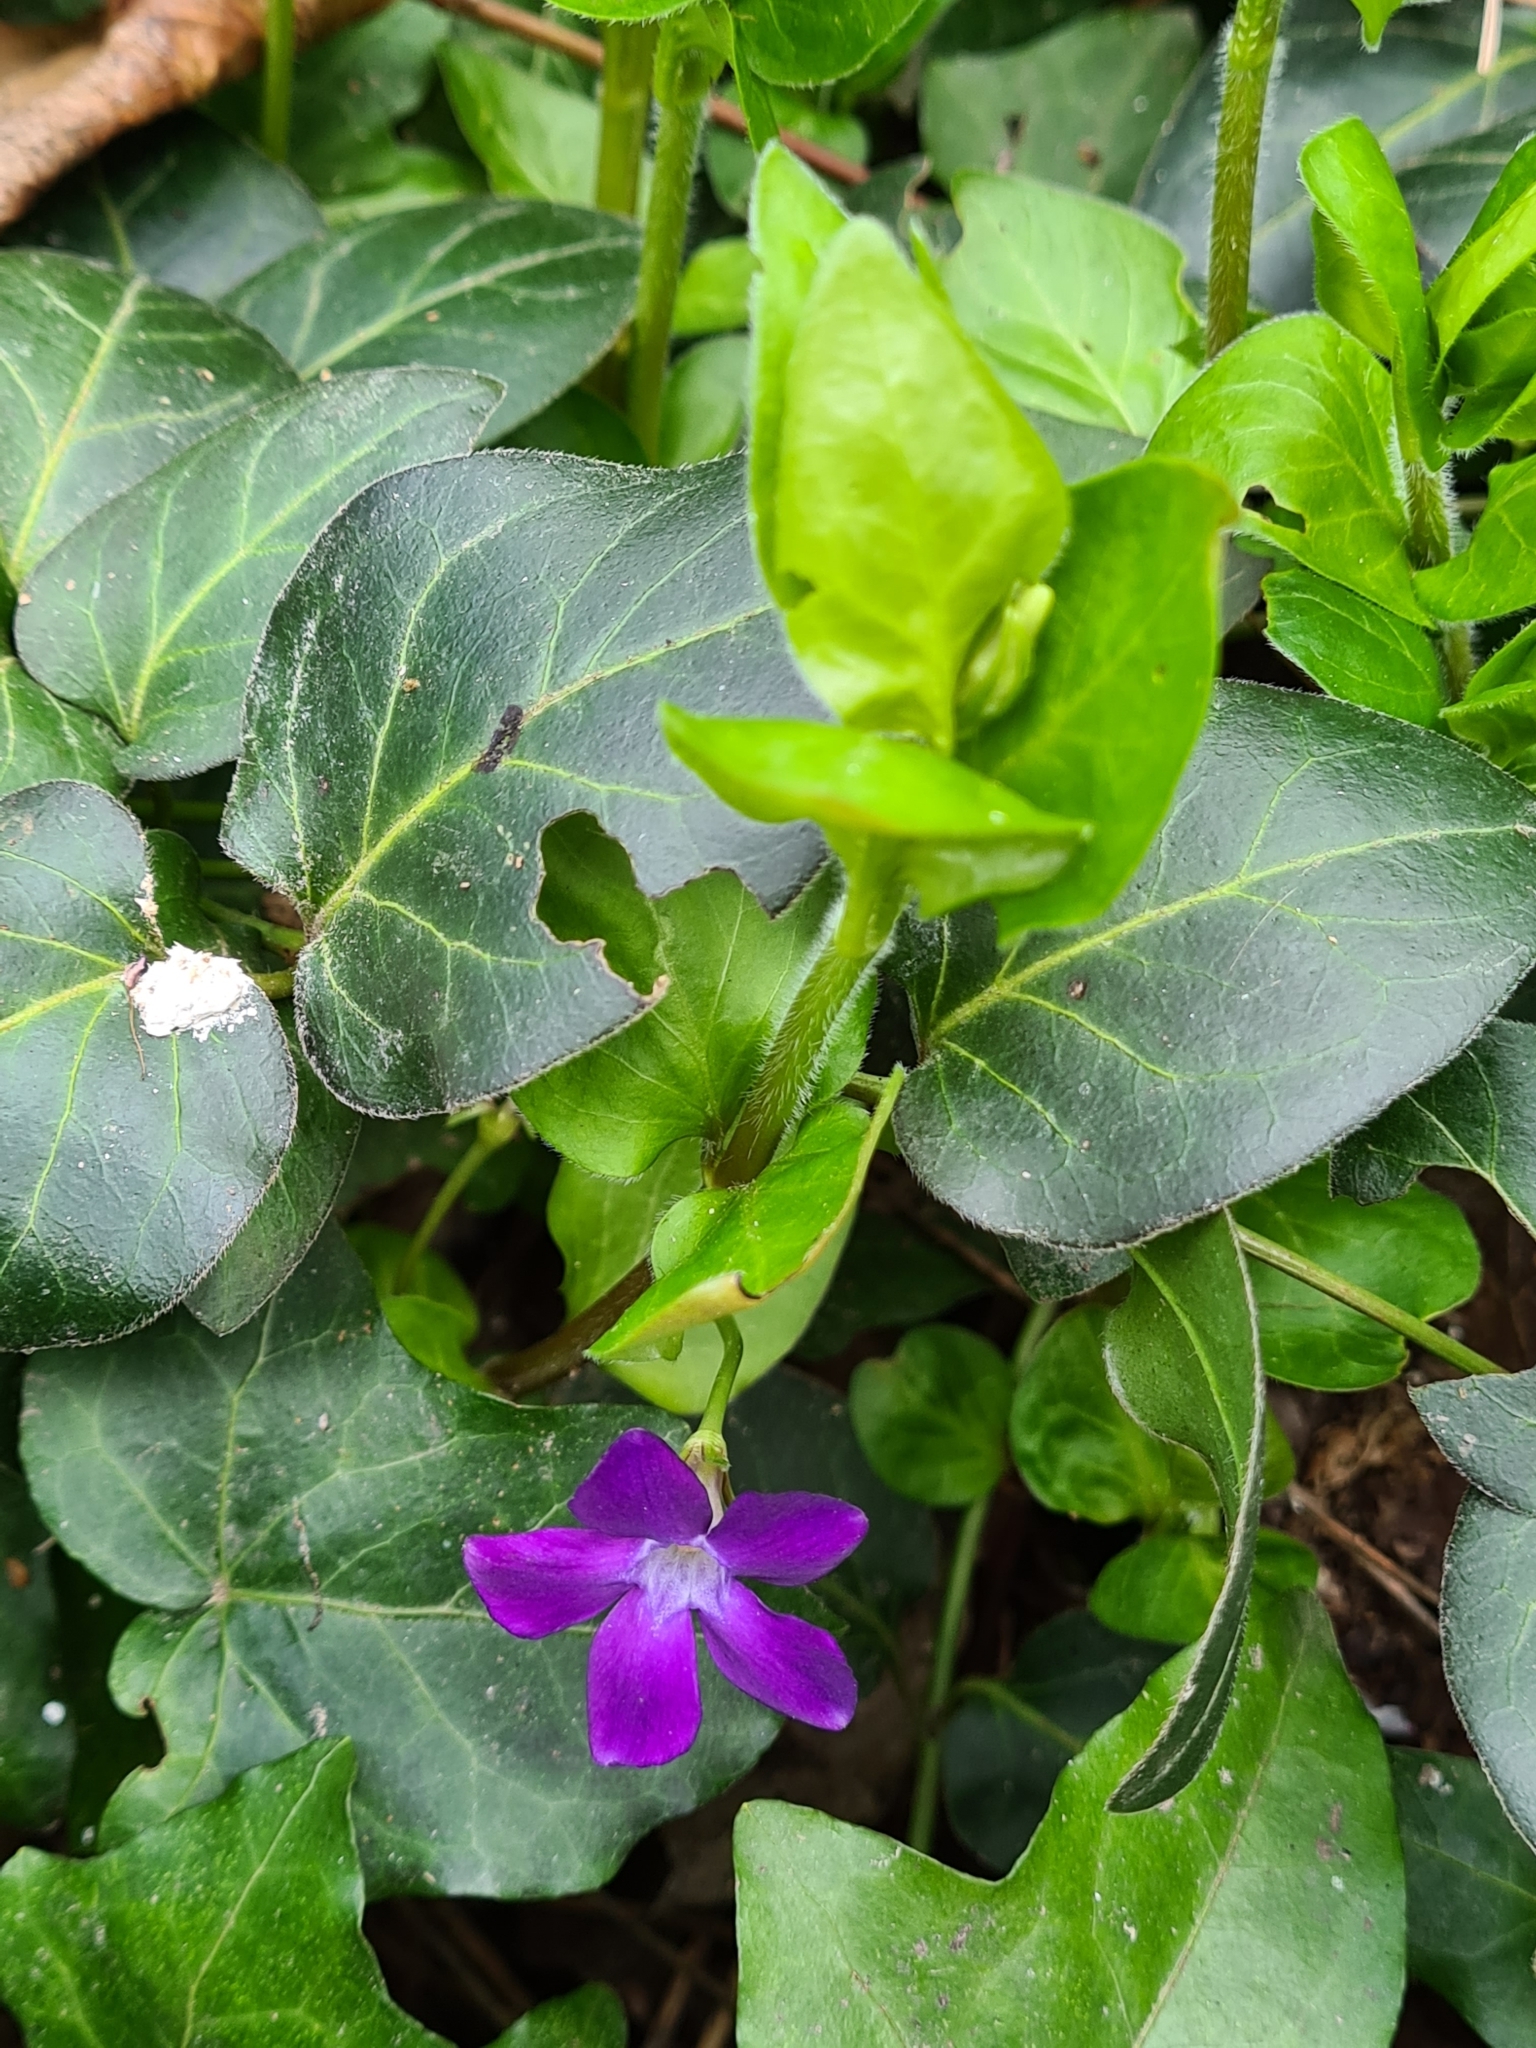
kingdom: Plantae
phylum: Tracheophyta
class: Magnoliopsida
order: Gentianales
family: Apocynaceae
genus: Vinca
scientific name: Vinca major
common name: Greater periwinkle
